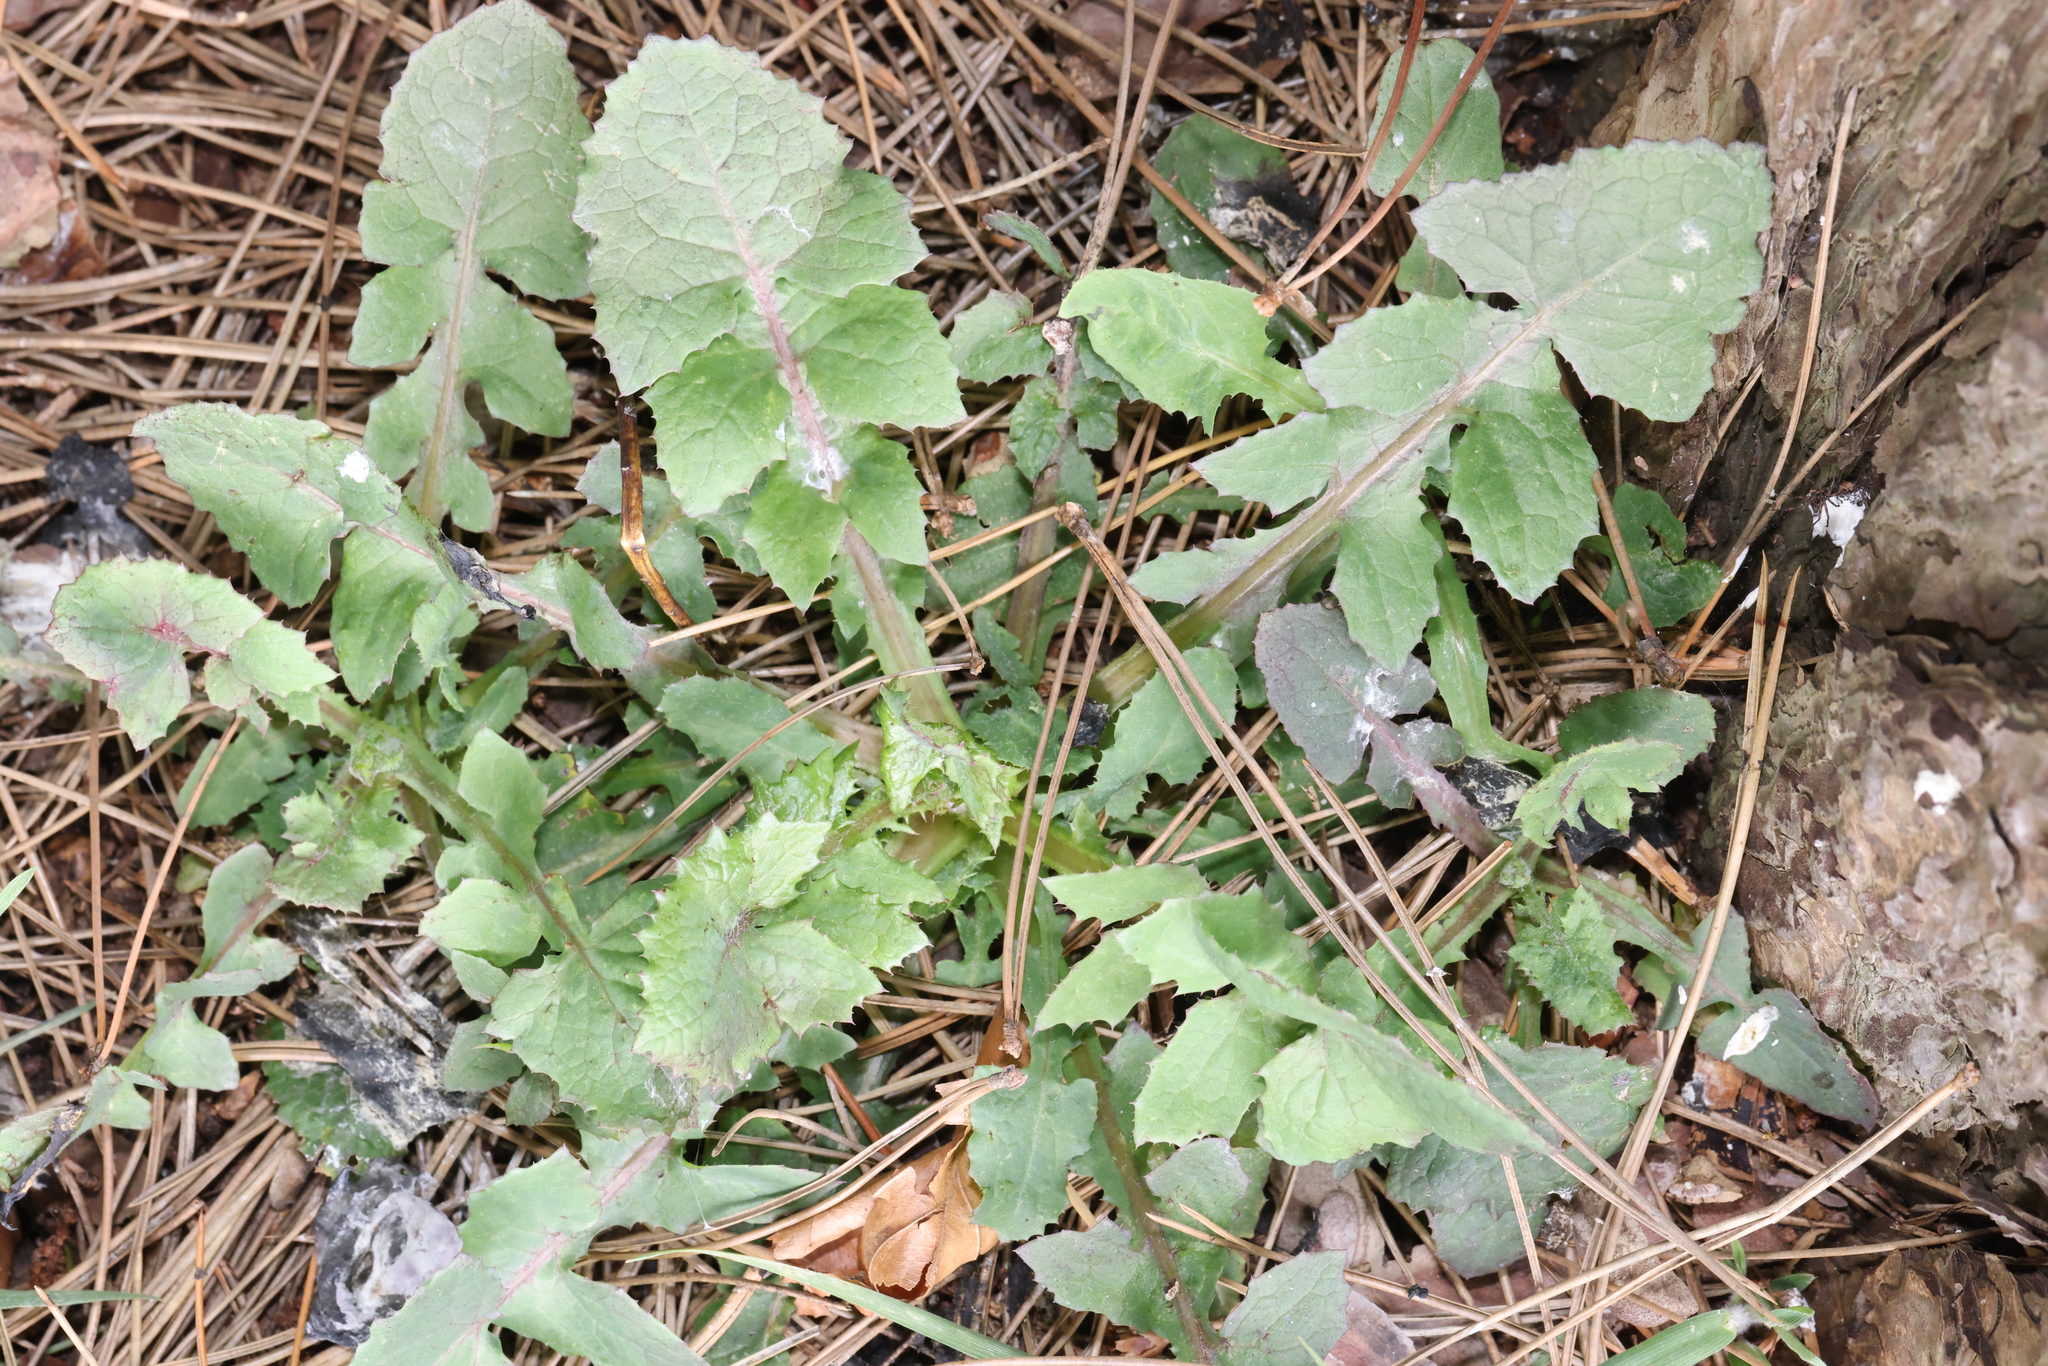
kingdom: Plantae
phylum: Tracheophyta
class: Magnoliopsida
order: Asterales
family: Asteraceae
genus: Sonchus
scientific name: Sonchus oleraceus
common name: Common sowthistle
